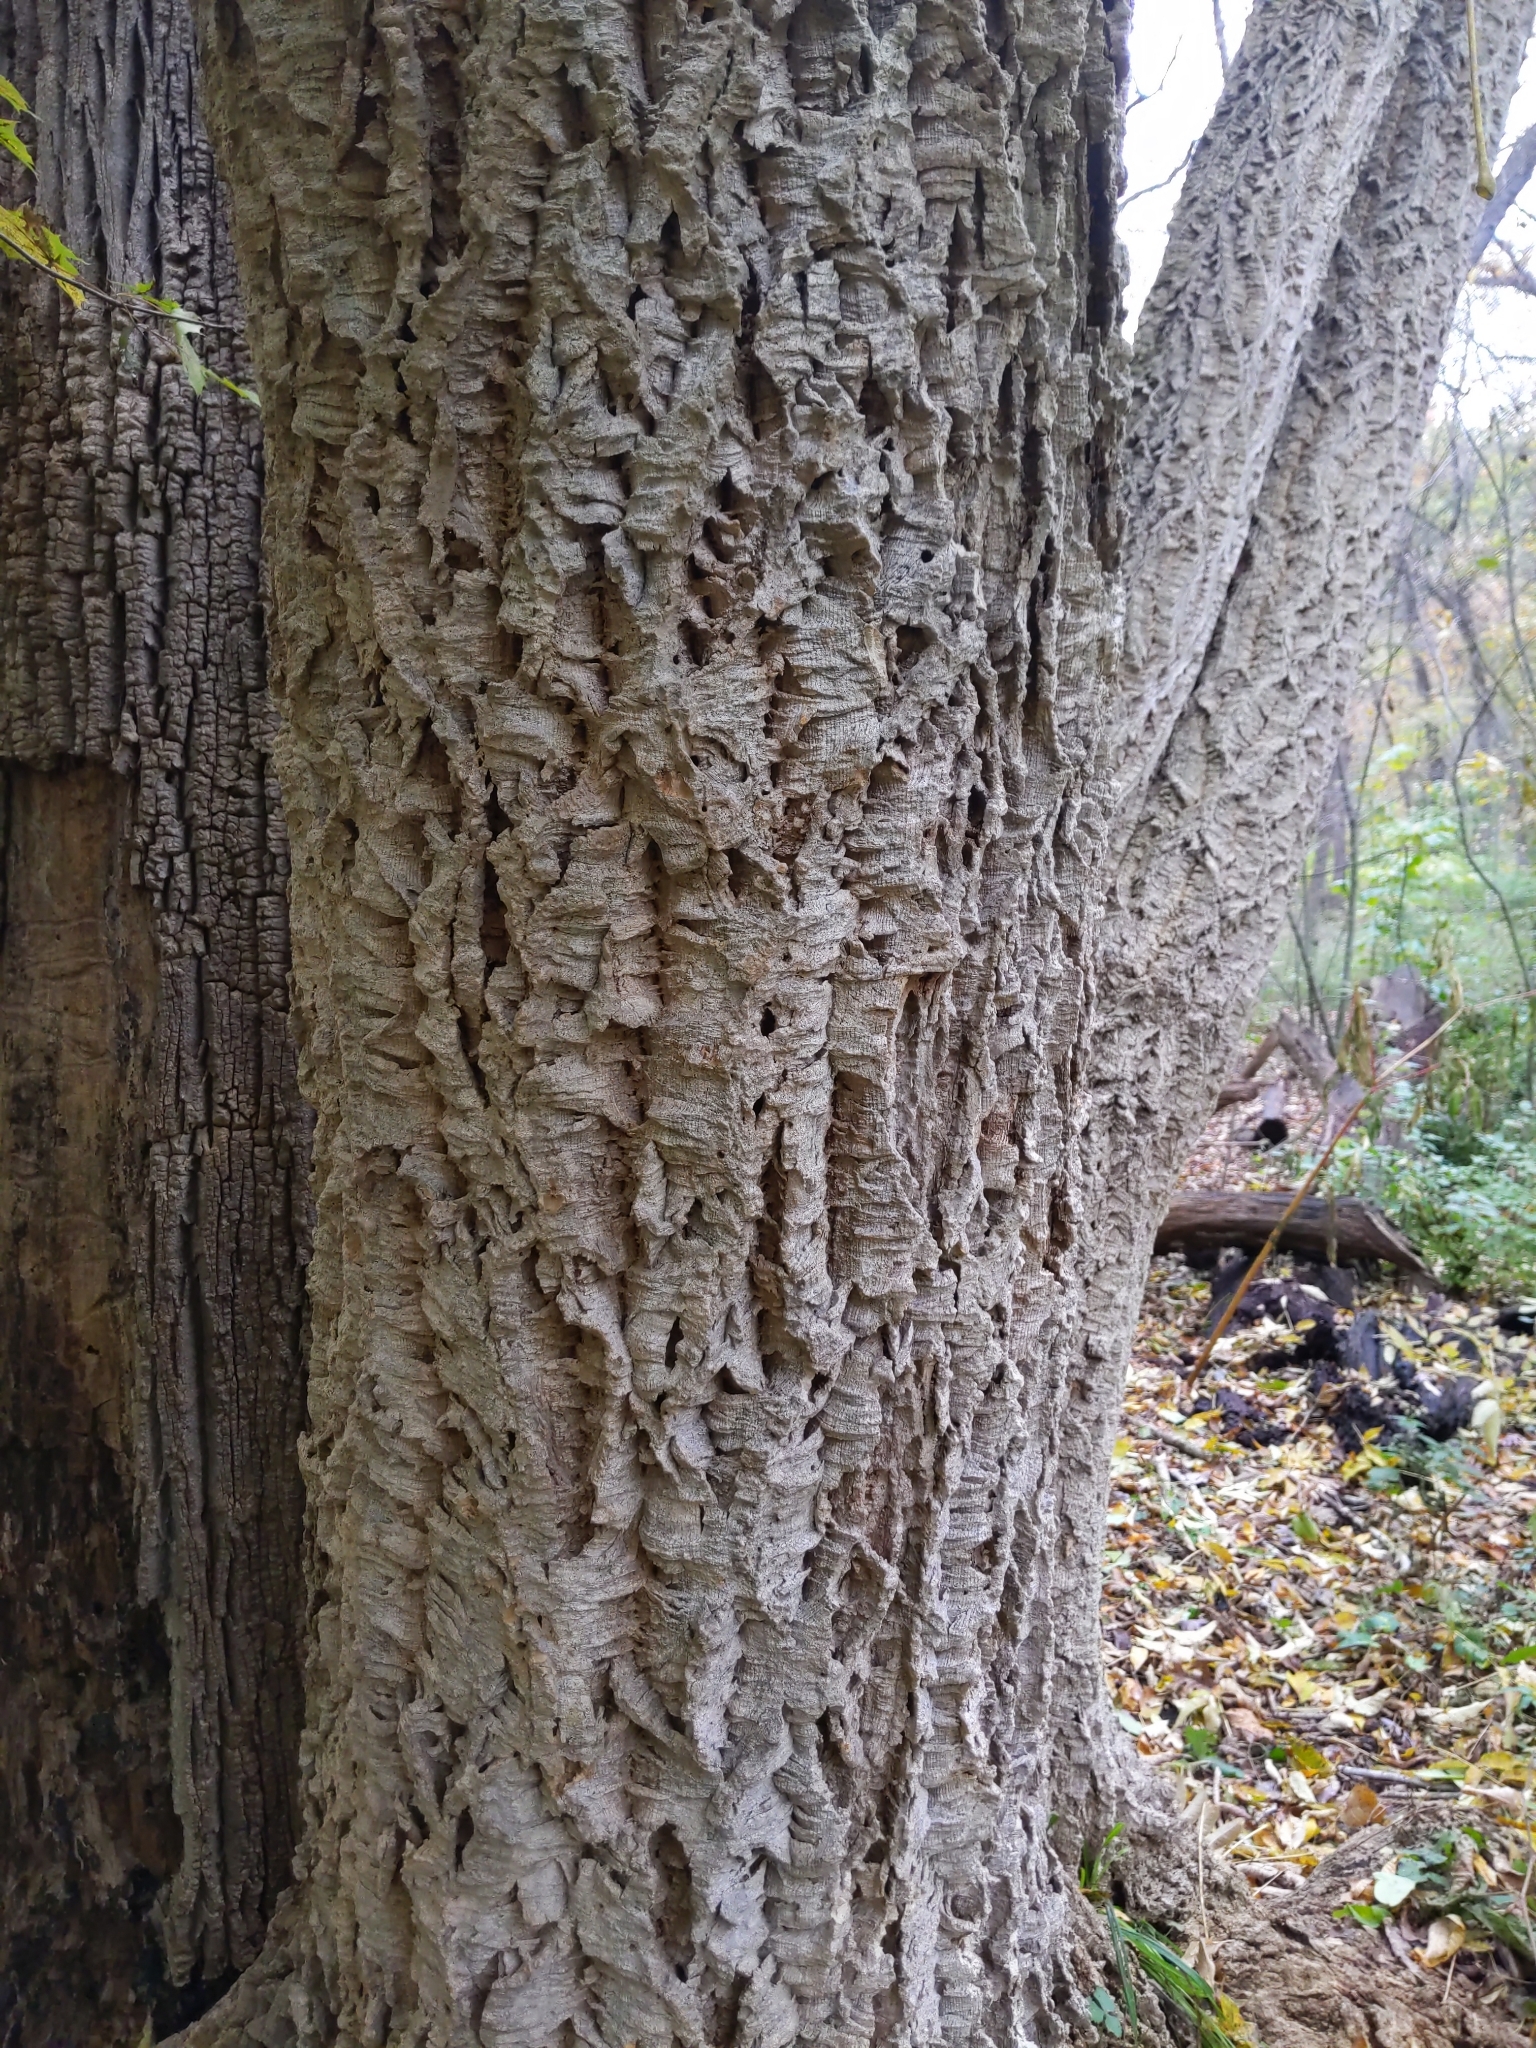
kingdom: Plantae
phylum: Tracheophyta
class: Magnoliopsida
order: Sapindales
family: Rutaceae
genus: Phellodendron
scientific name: Phellodendron amurense
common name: Amur corktree
